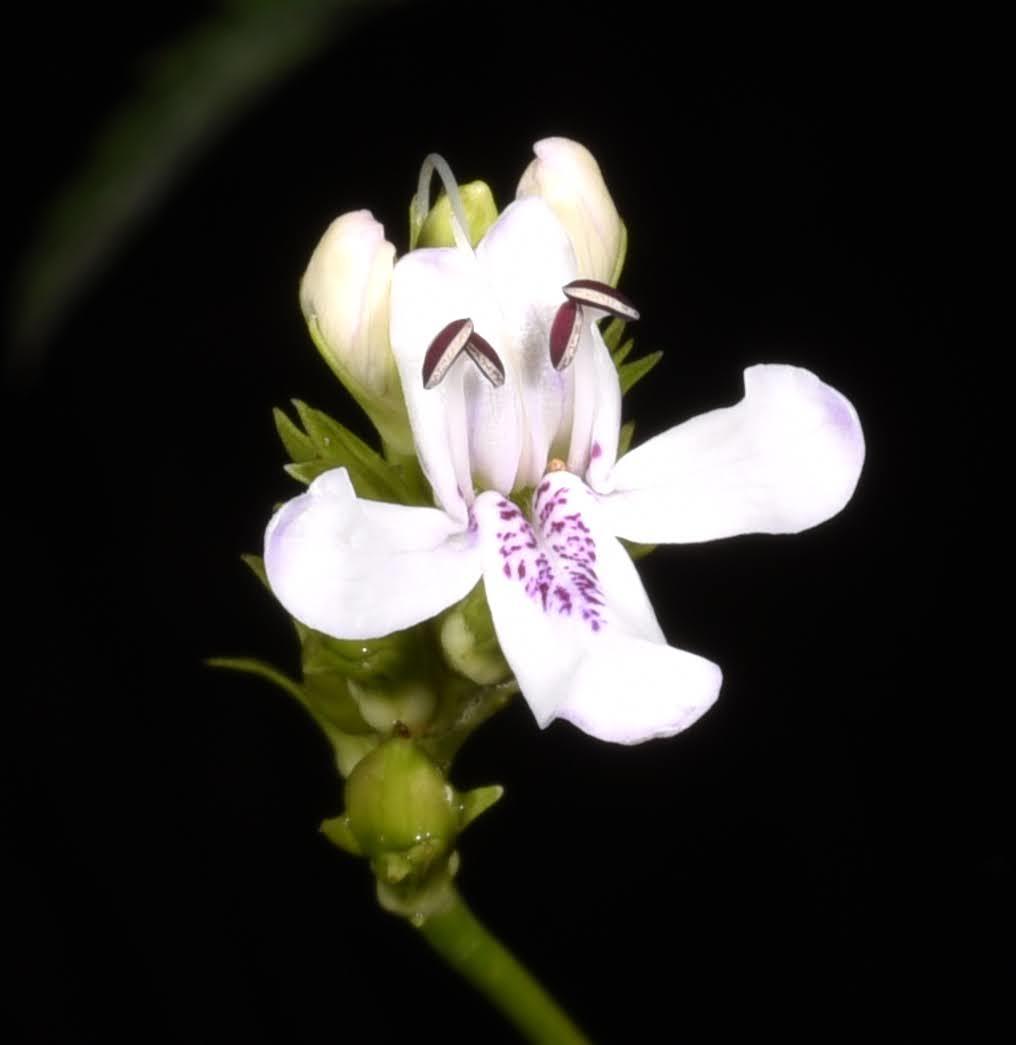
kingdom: Plantae
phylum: Tracheophyta
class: Magnoliopsida
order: Lamiales
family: Acanthaceae
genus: Dianthera
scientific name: Dianthera americana
